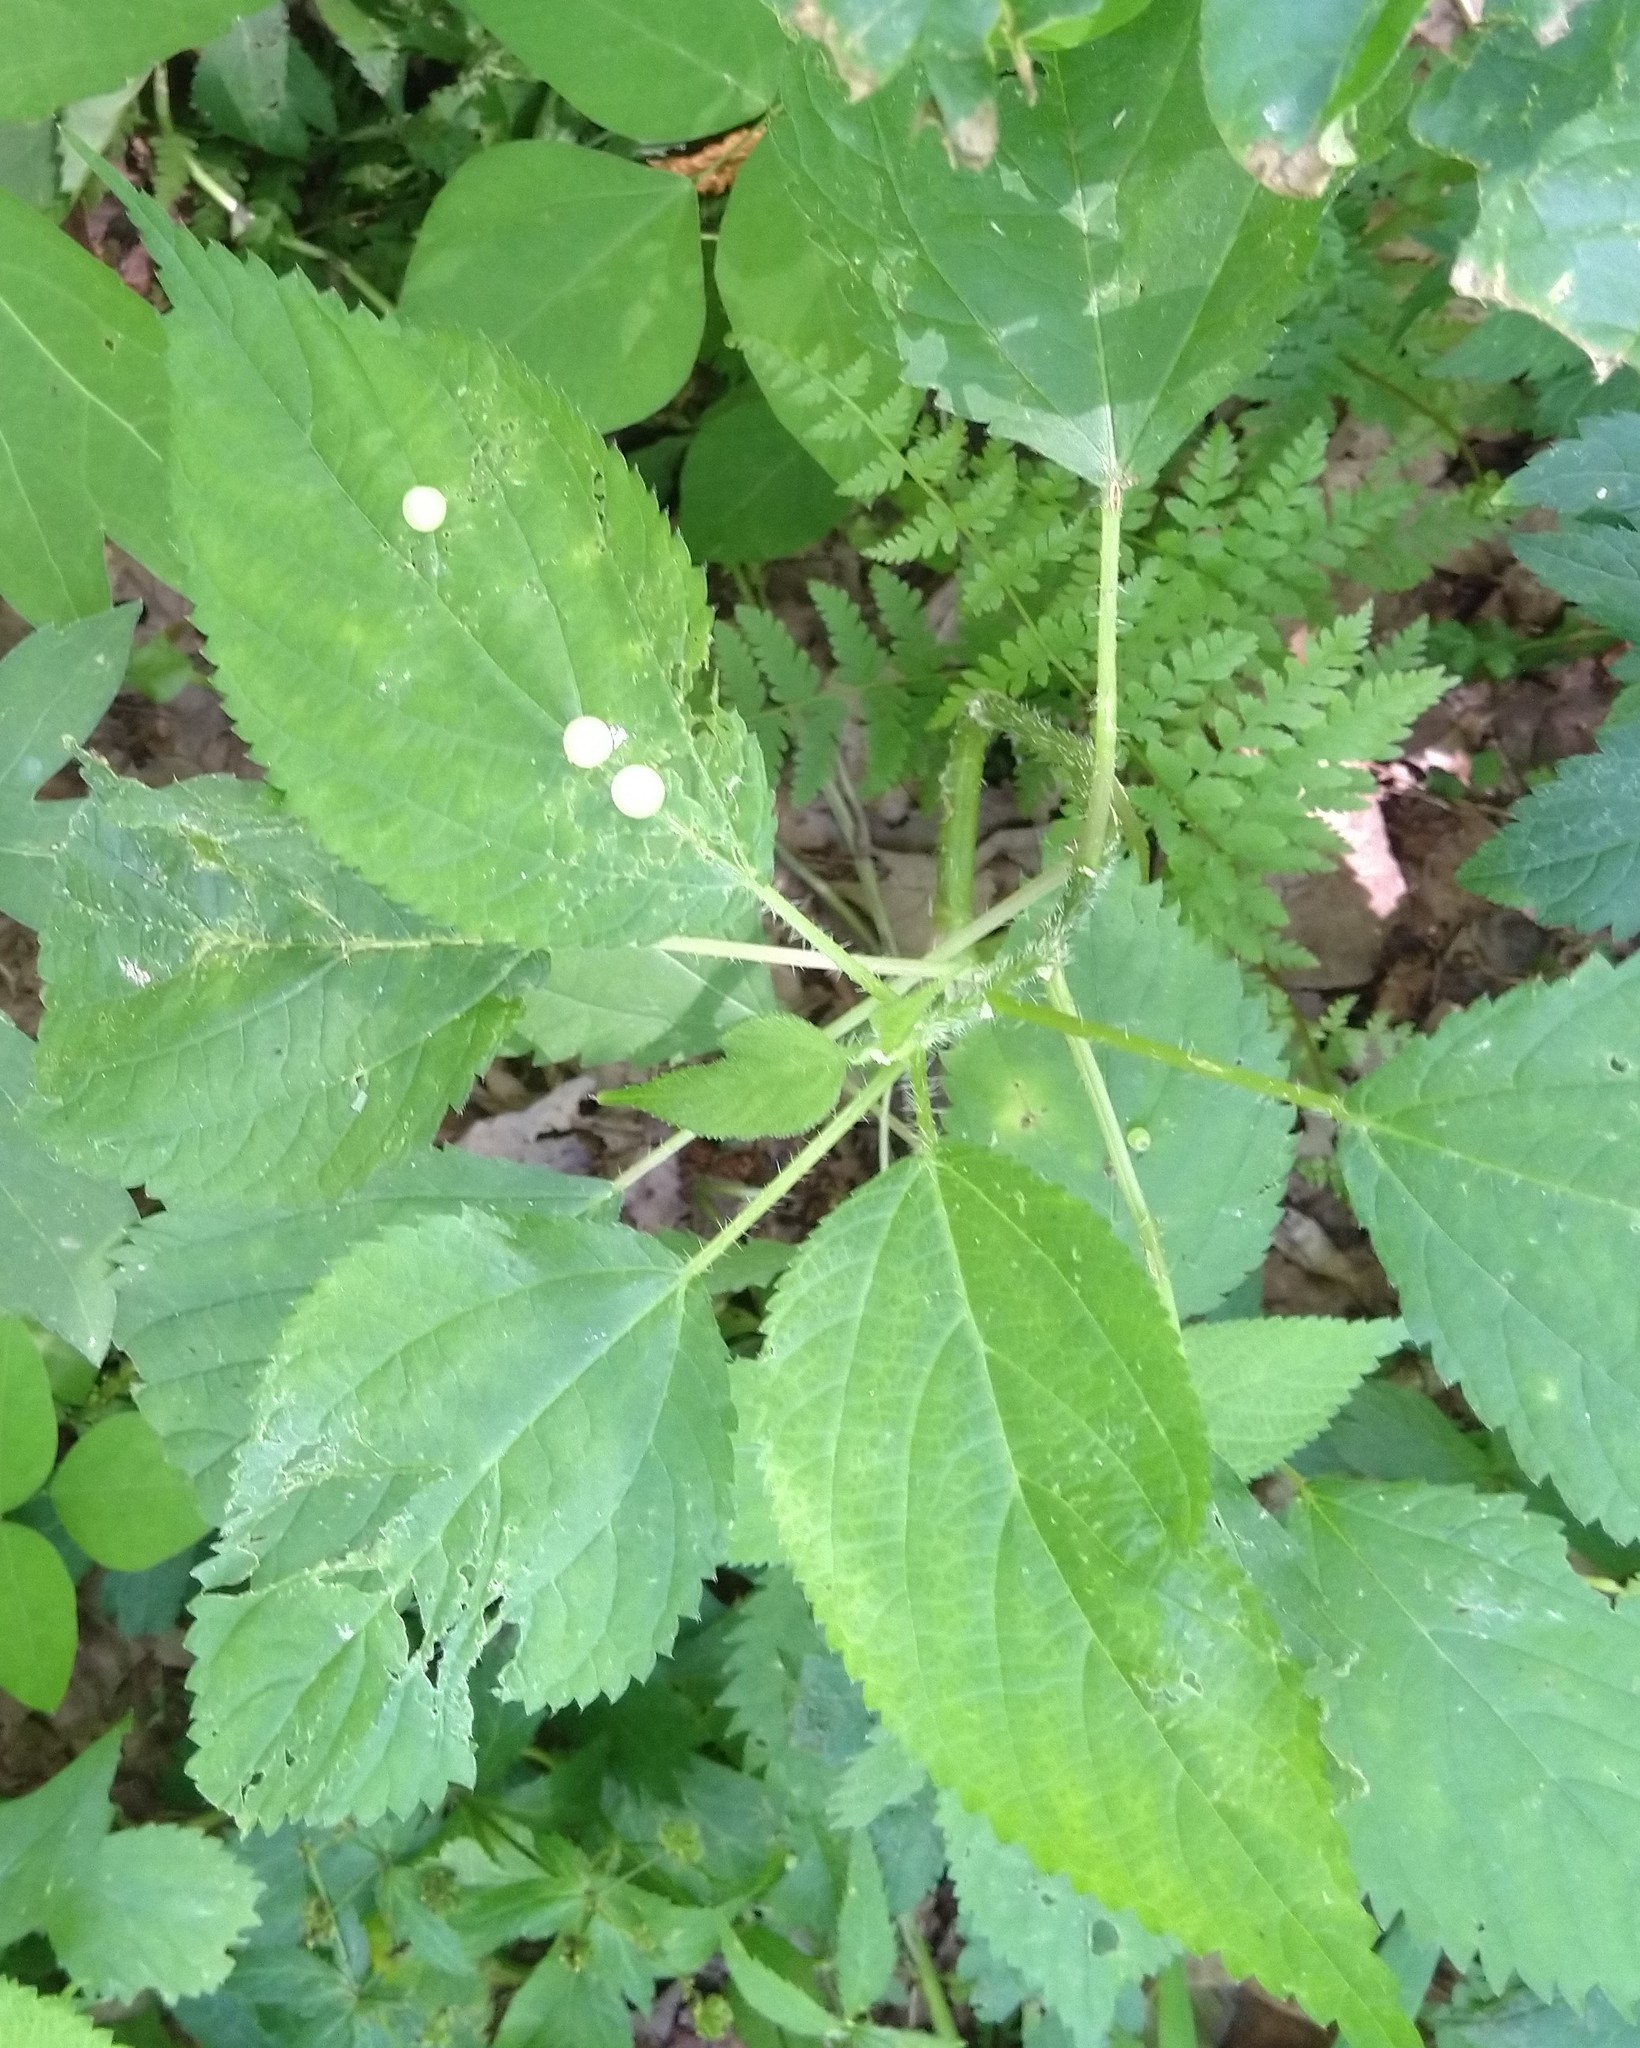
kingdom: Plantae
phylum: Tracheophyta
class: Magnoliopsida
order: Rosales
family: Urticaceae
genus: Laportea
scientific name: Laportea canadensis
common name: Canada nettle
